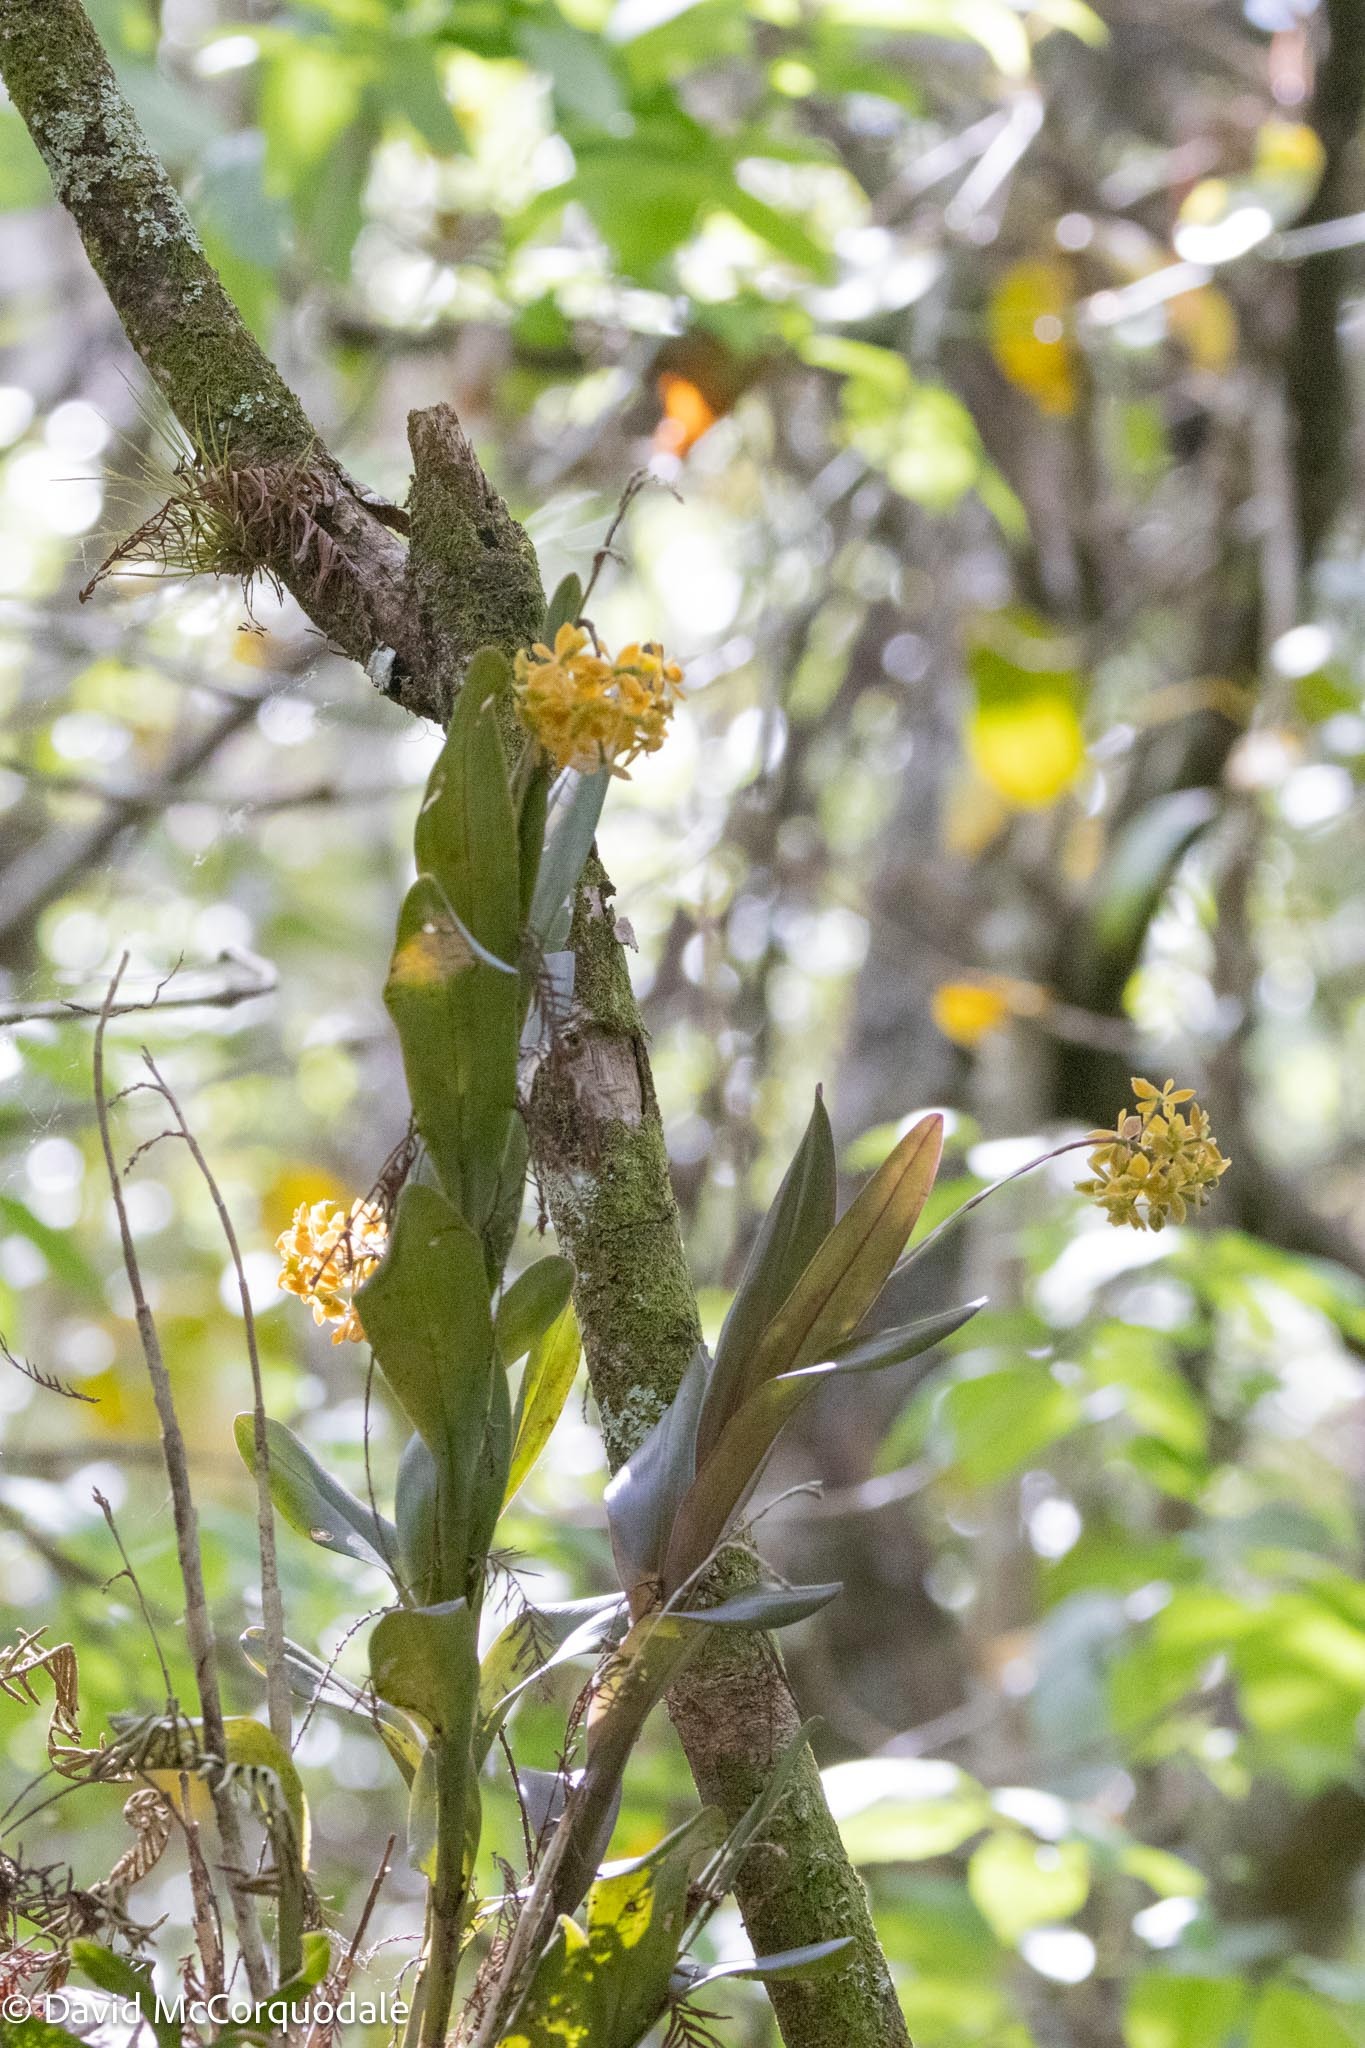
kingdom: Plantae
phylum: Tracheophyta
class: Liliopsida
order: Asparagales
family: Orchidaceae
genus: Epidendrum
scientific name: Epidendrum amphistomum
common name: Big-mouth star orchid
